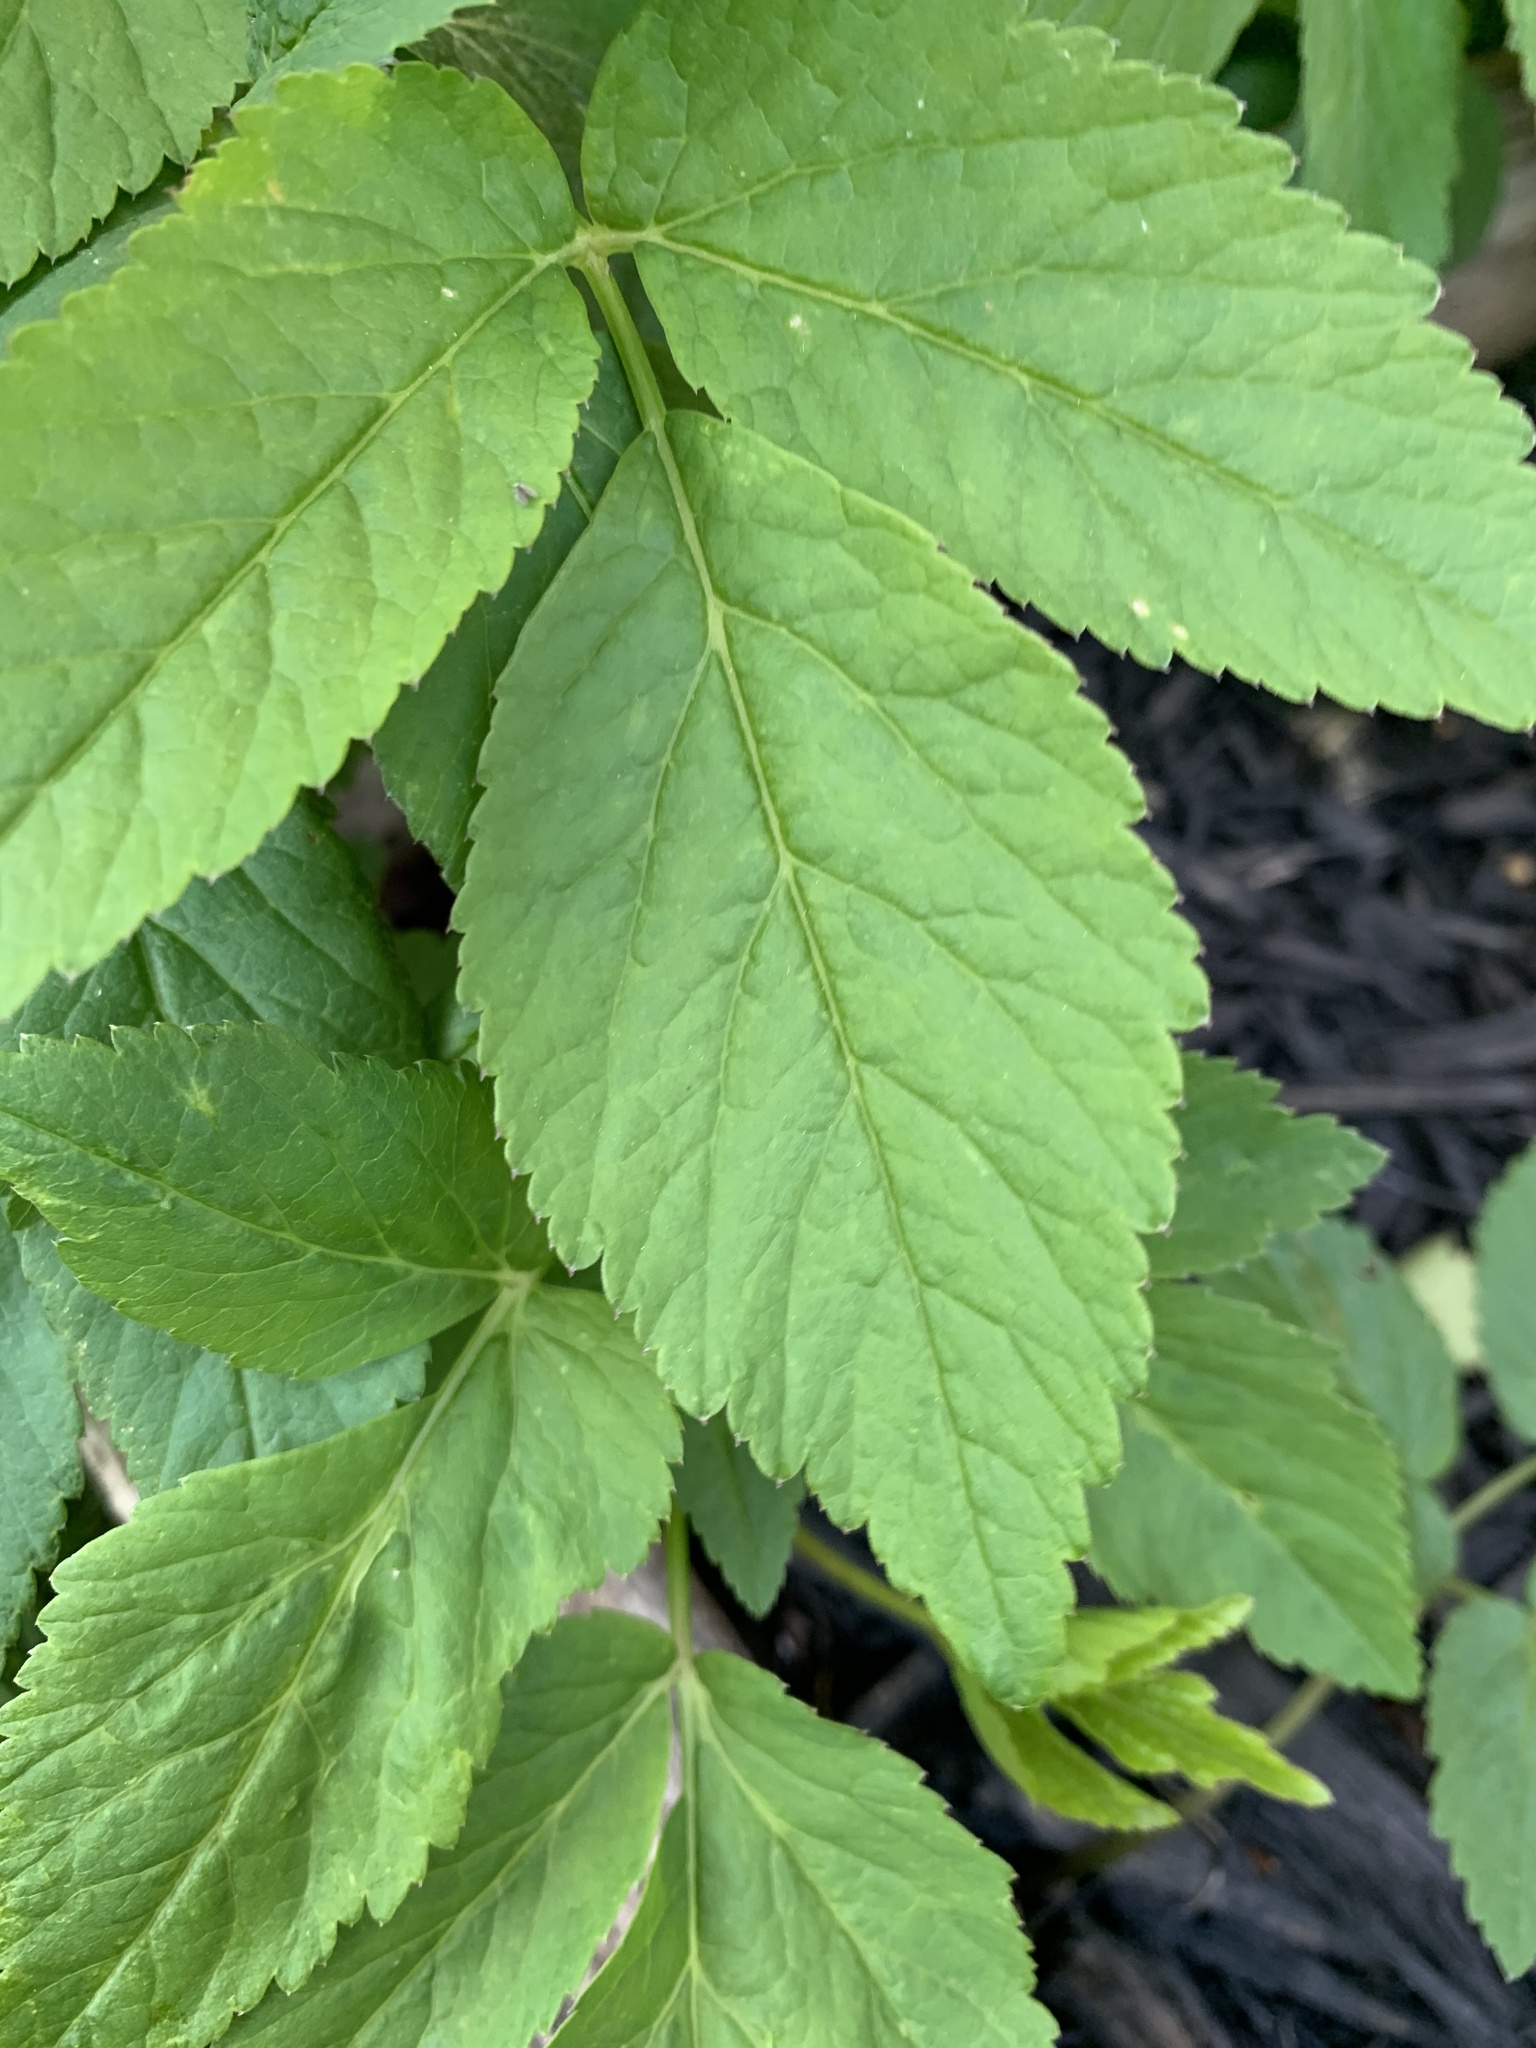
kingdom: Plantae
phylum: Tracheophyta
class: Magnoliopsida
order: Apiales
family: Apiaceae
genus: Aegopodium
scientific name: Aegopodium podagraria
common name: Ground-elder
